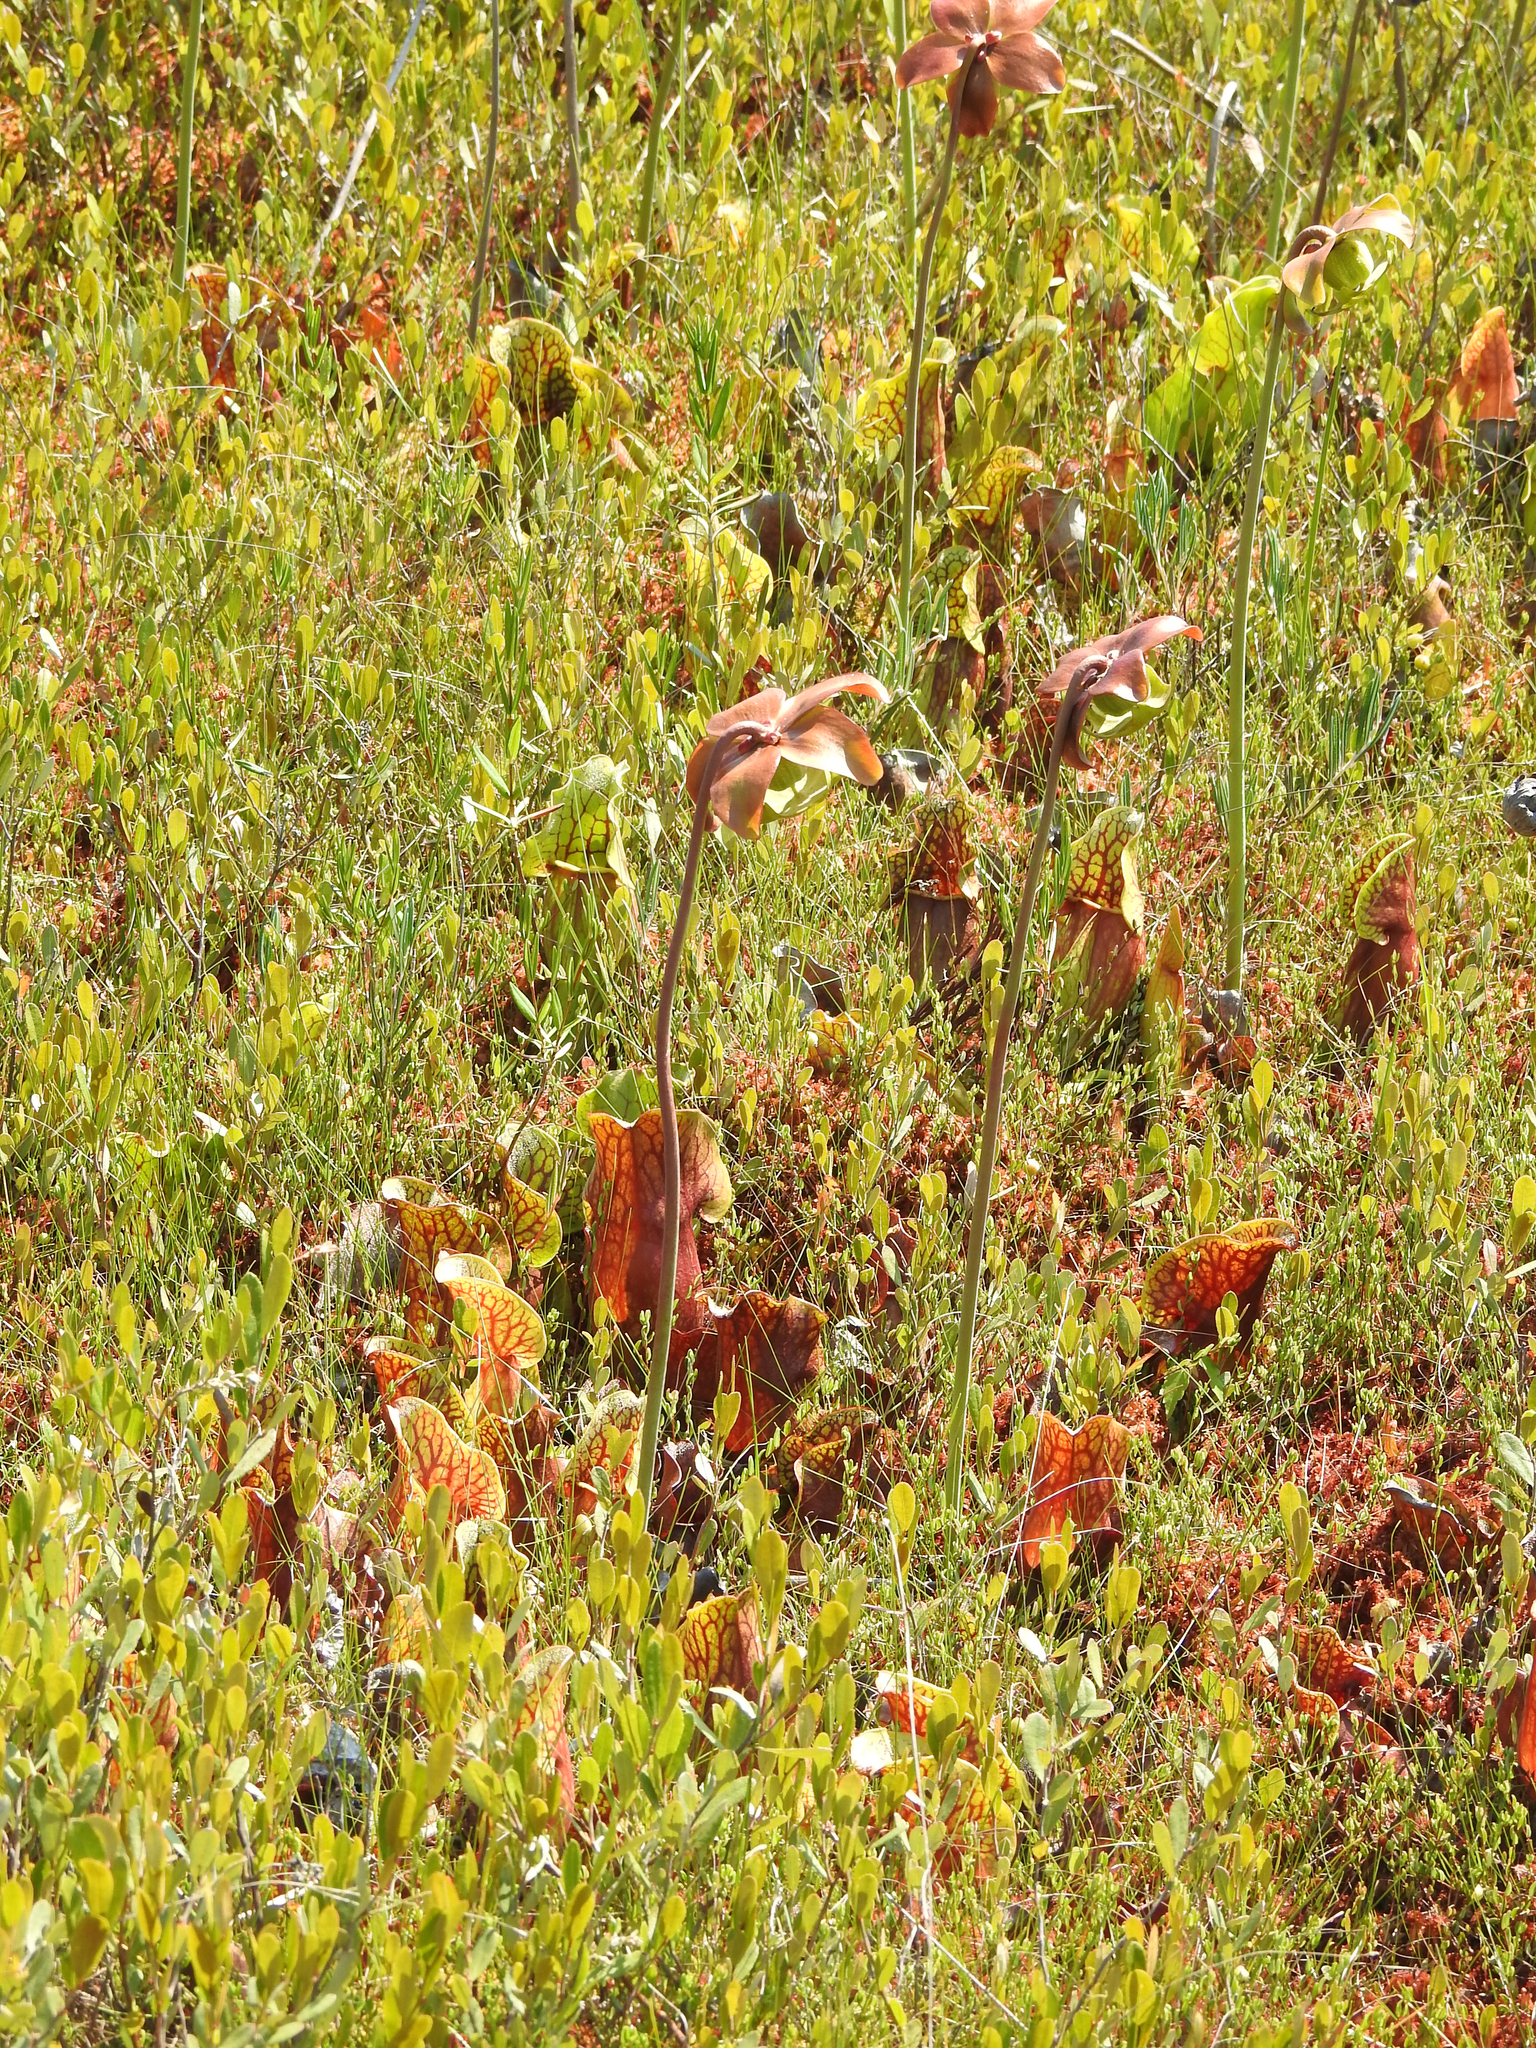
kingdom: Plantae
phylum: Tracheophyta
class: Magnoliopsida
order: Ericales
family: Sarraceniaceae
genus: Sarracenia
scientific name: Sarracenia purpurea
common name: Pitcherplant
